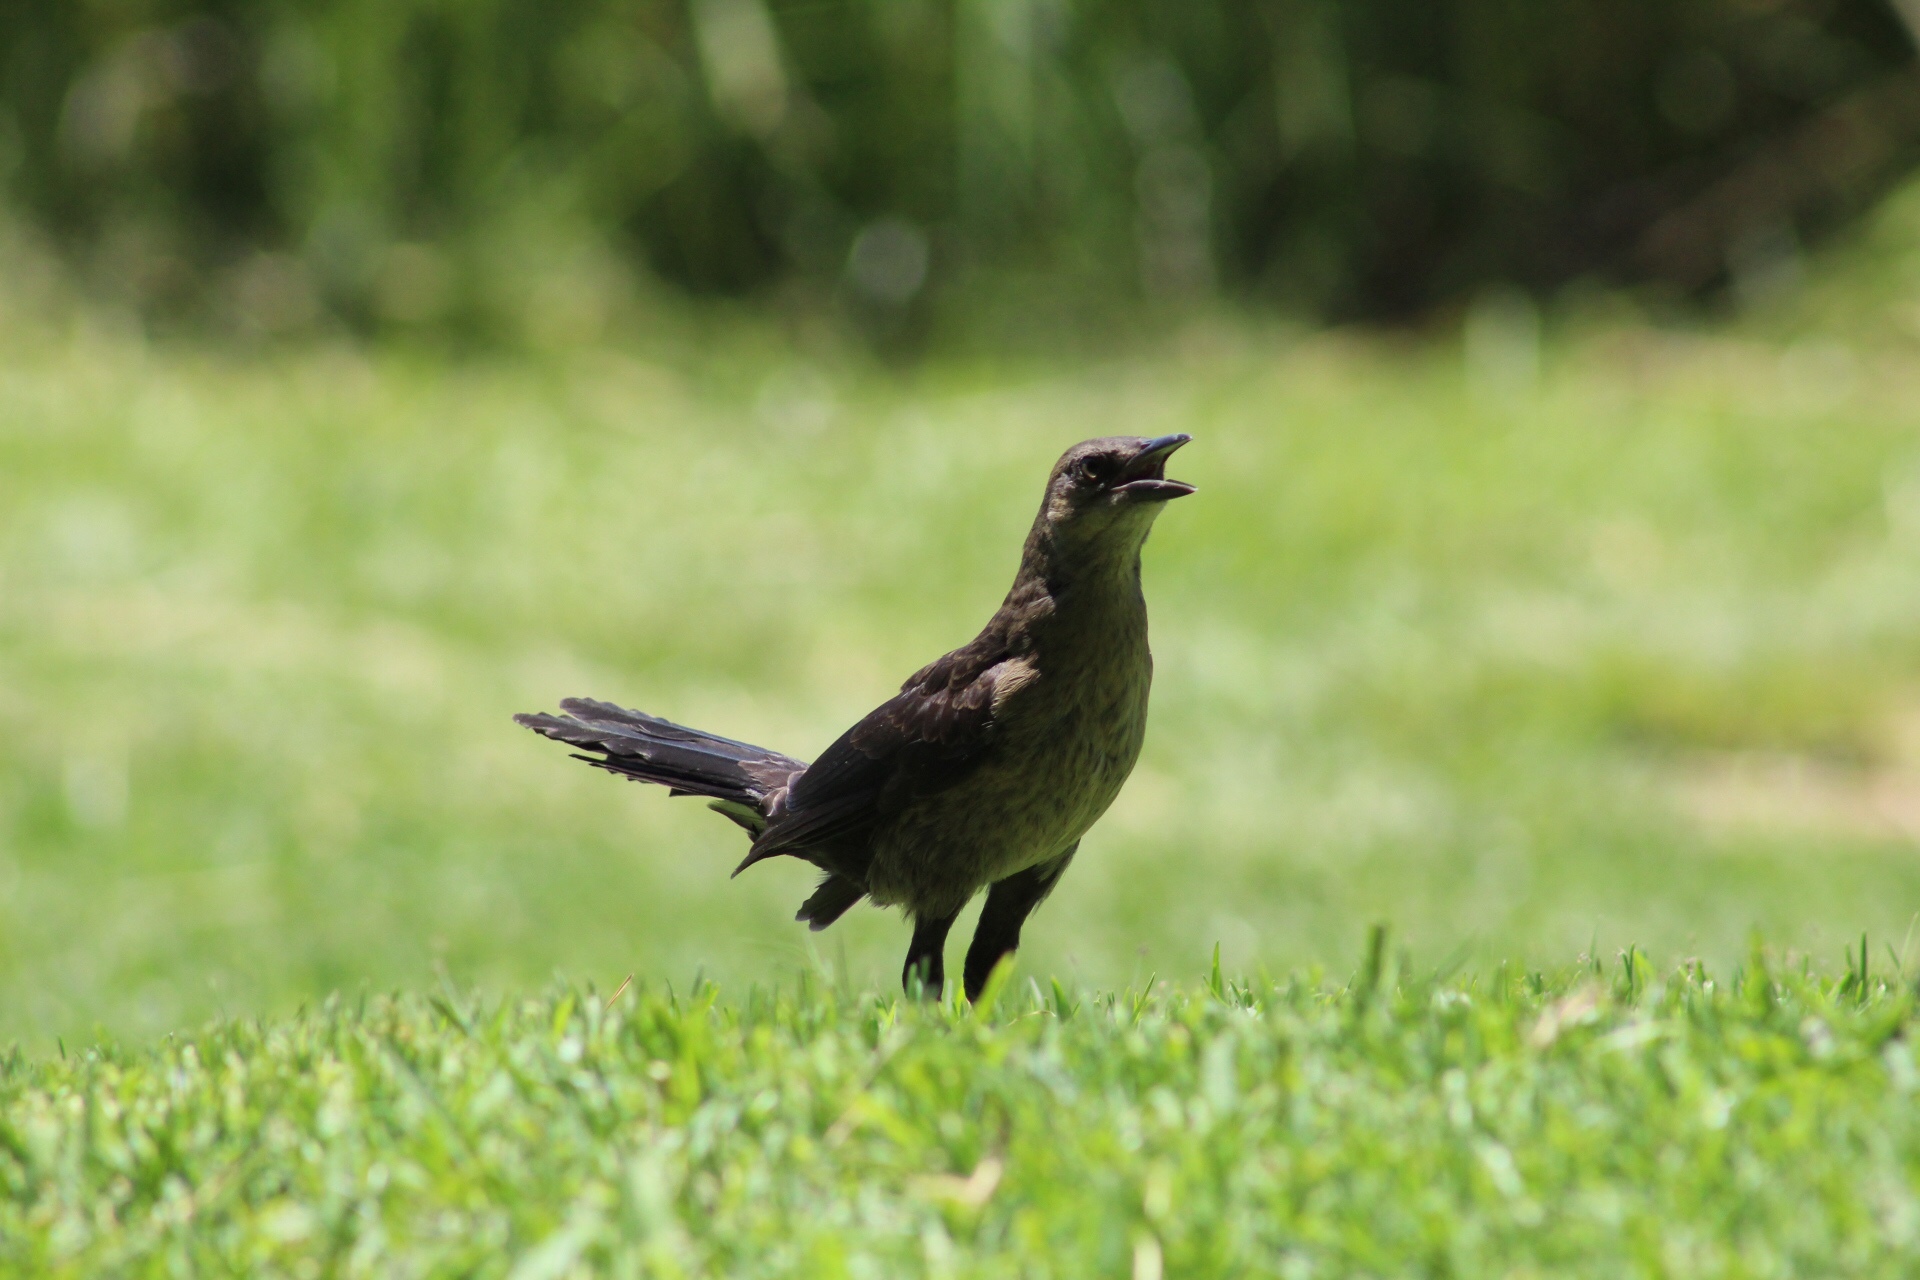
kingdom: Animalia
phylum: Chordata
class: Aves
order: Passeriformes
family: Icteridae
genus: Quiscalus
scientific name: Quiscalus mexicanus
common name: Great-tailed grackle
